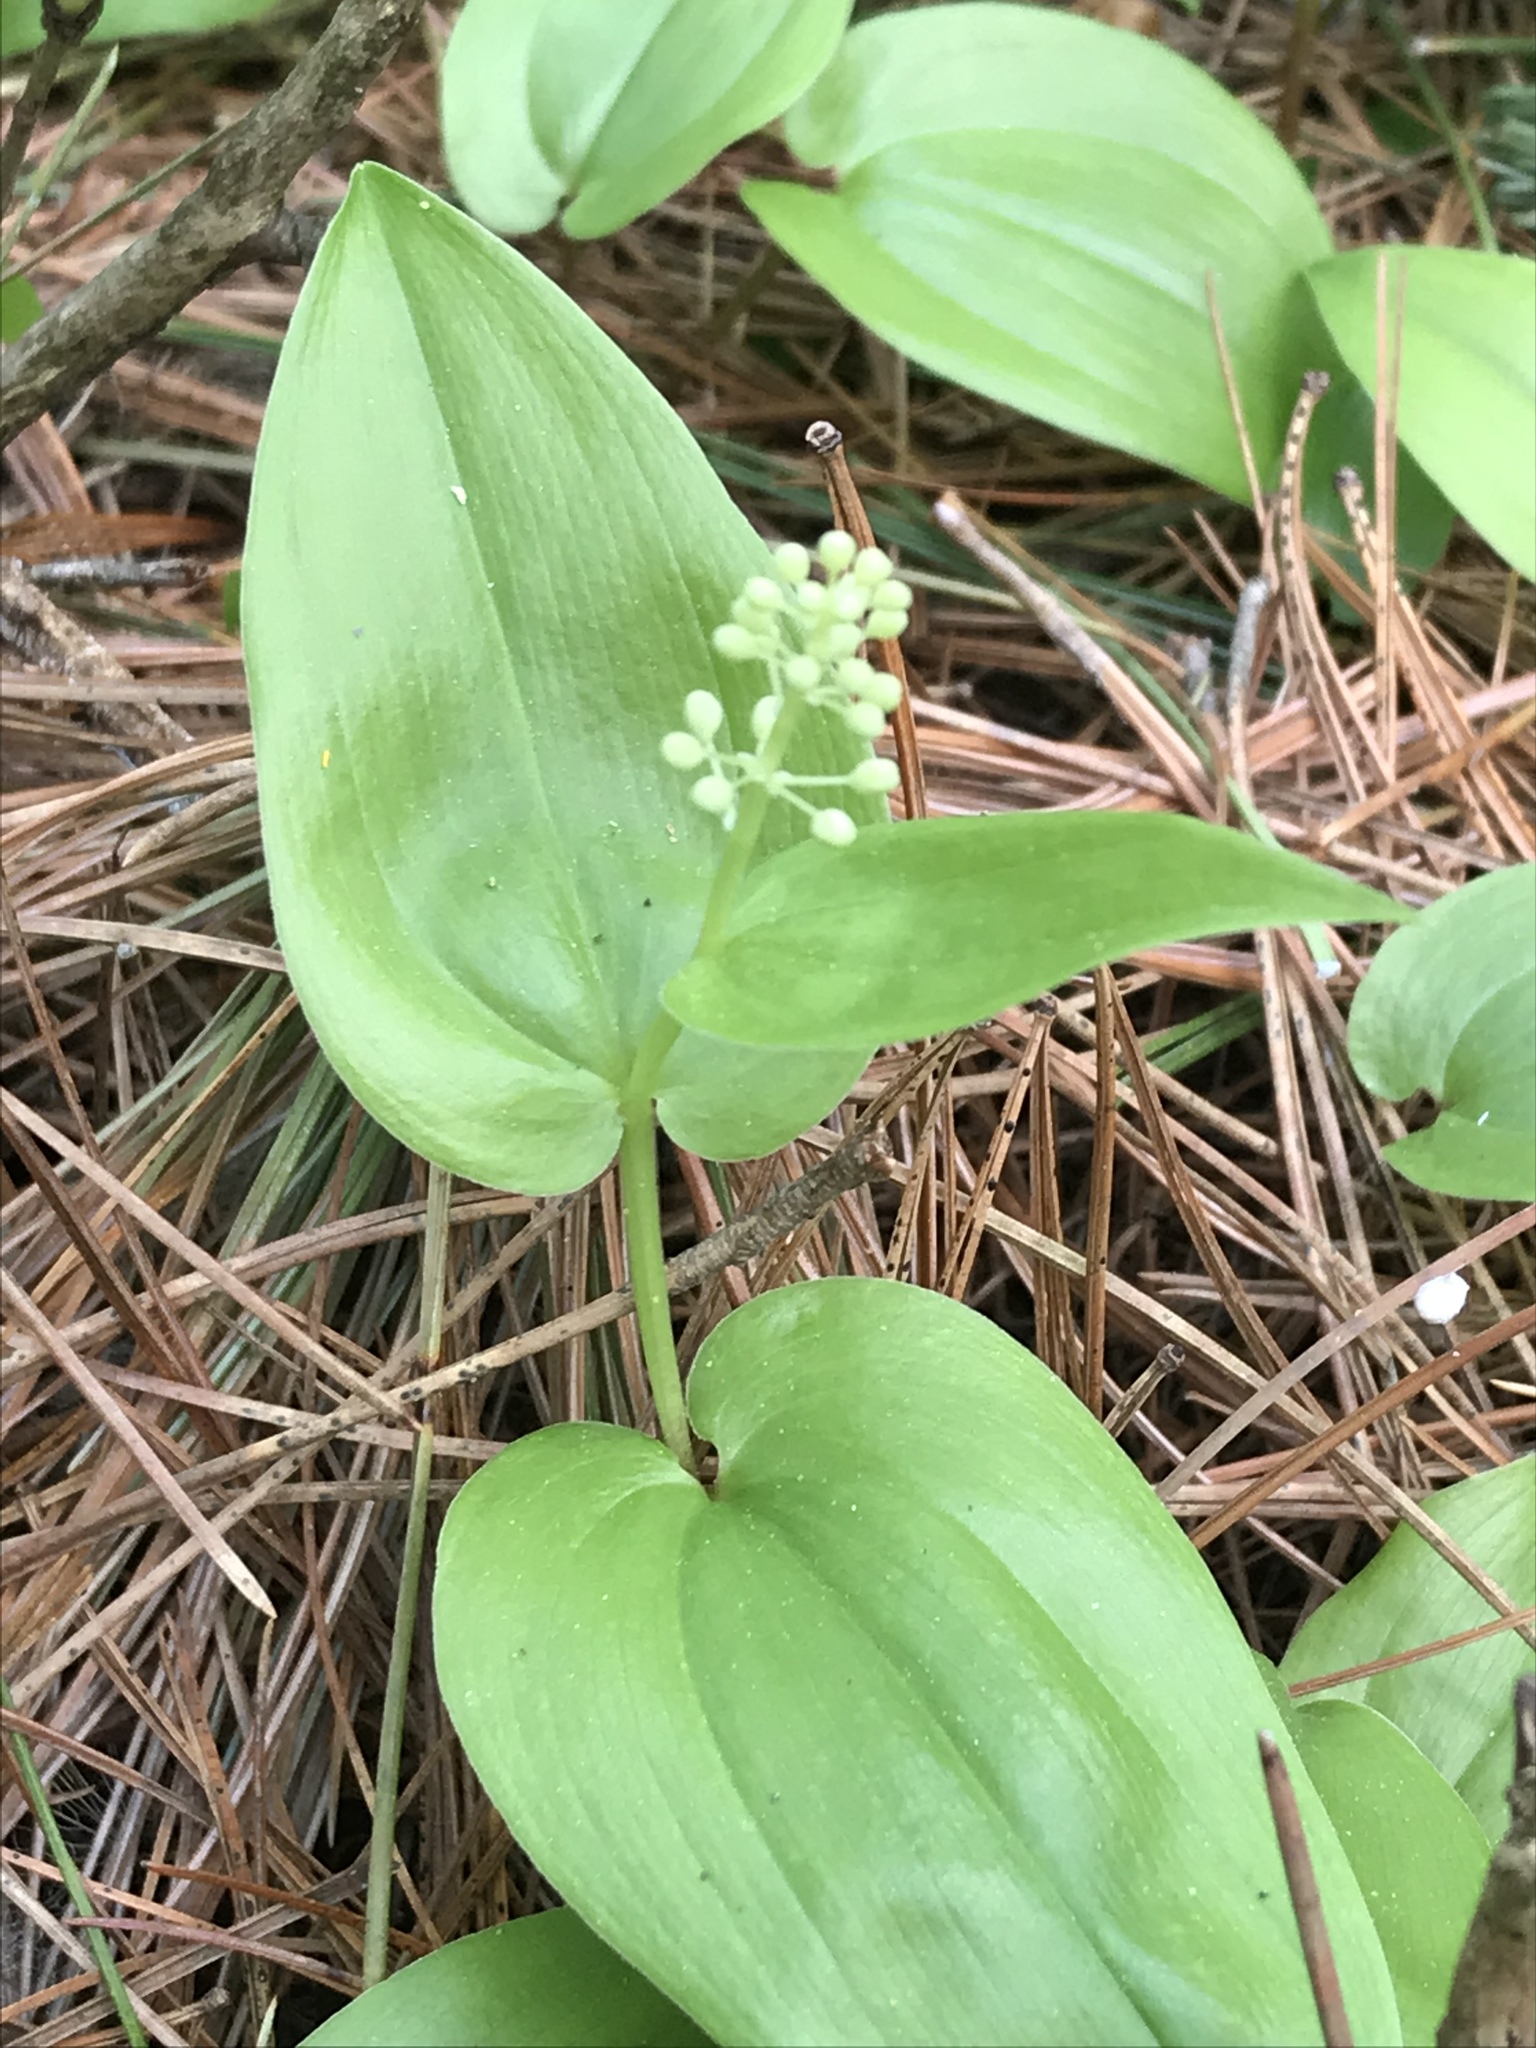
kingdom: Plantae
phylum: Tracheophyta
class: Liliopsida
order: Asparagales
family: Asparagaceae
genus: Maianthemum
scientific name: Maianthemum canadense
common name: False lily-of-the-valley
